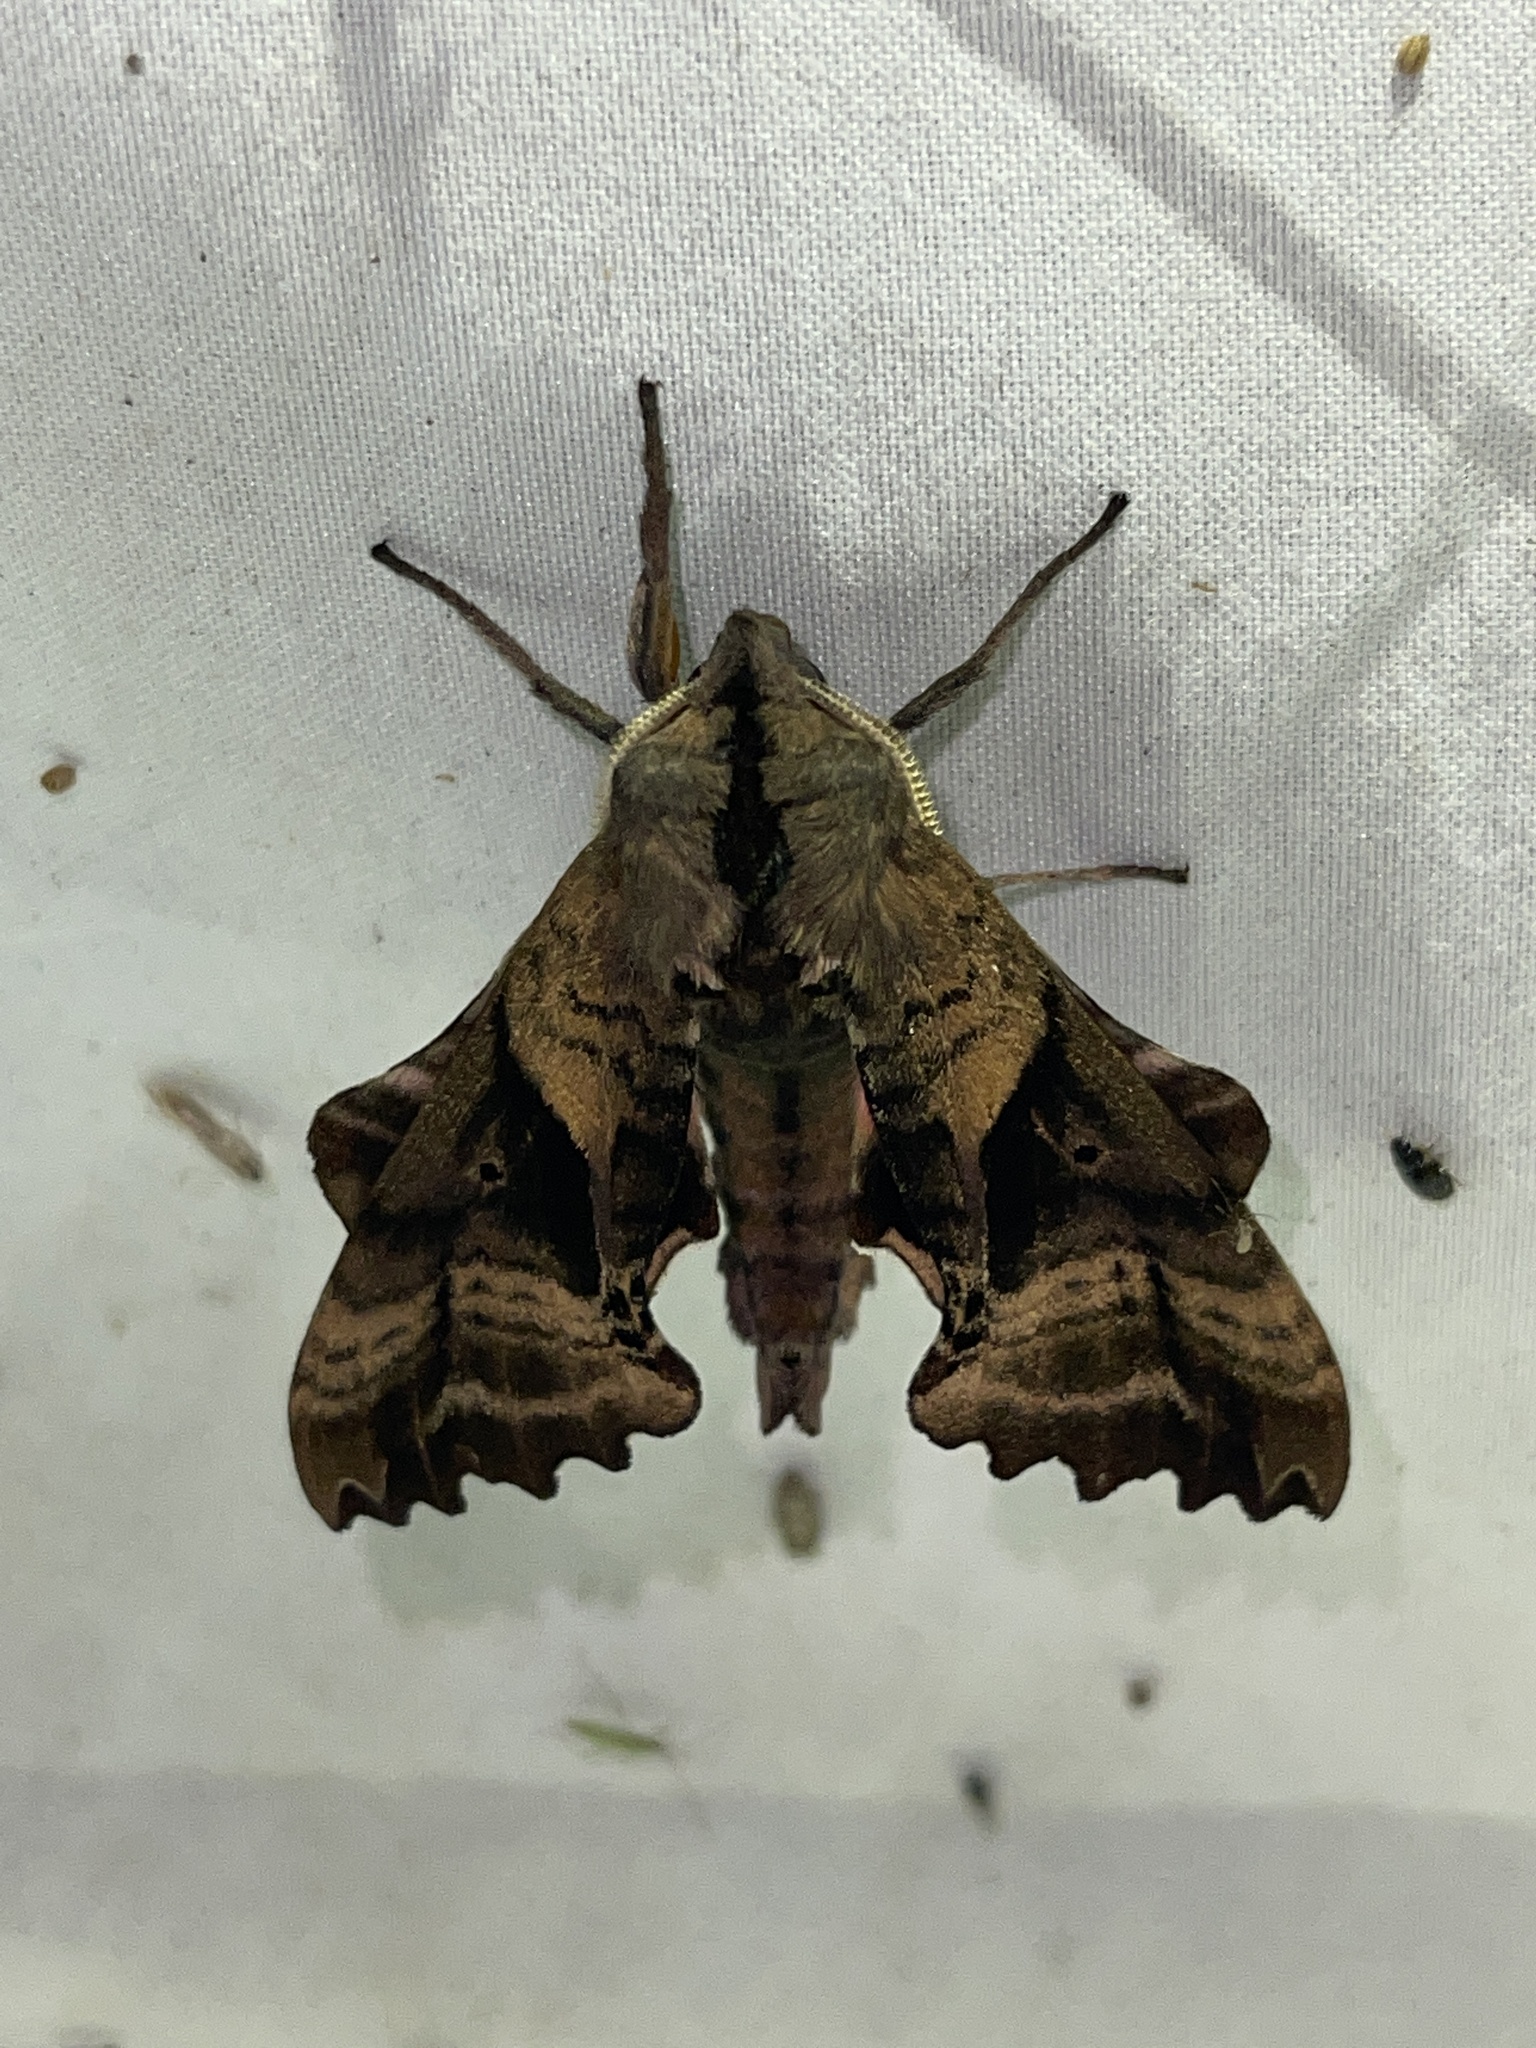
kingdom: Animalia
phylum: Arthropoda
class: Insecta
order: Lepidoptera
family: Sphingidae
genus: Paonias
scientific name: Paonias excaecata
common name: Blind-eyed sphinx
